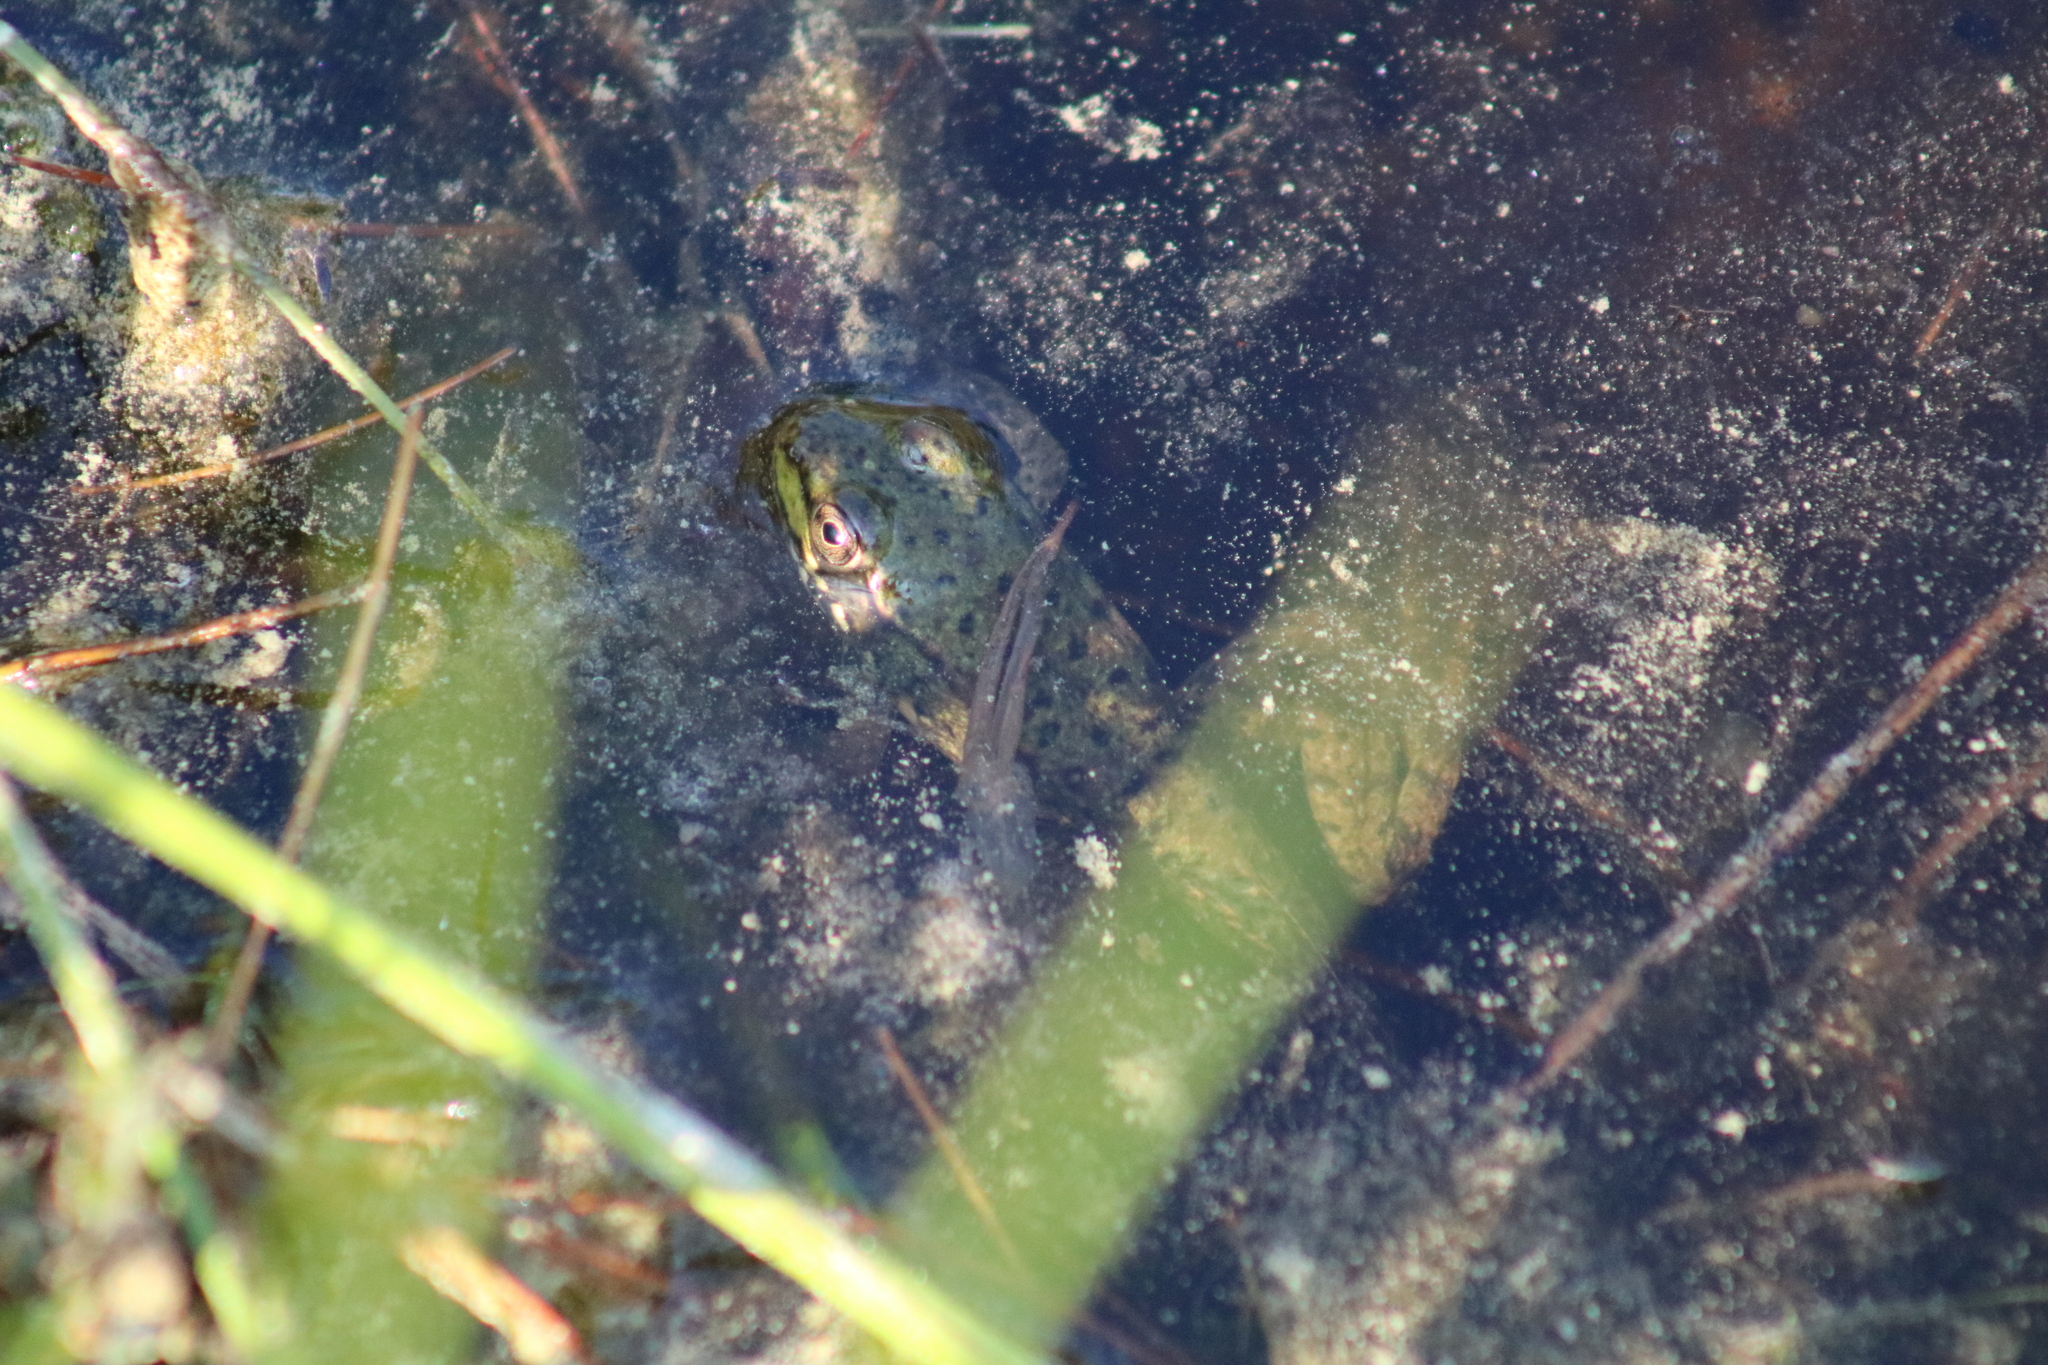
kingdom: Animalia
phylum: Chordata
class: Amphibia
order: Anura
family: Ranidae
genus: Lithobates
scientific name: Lithobates clamitans
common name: Green frog
